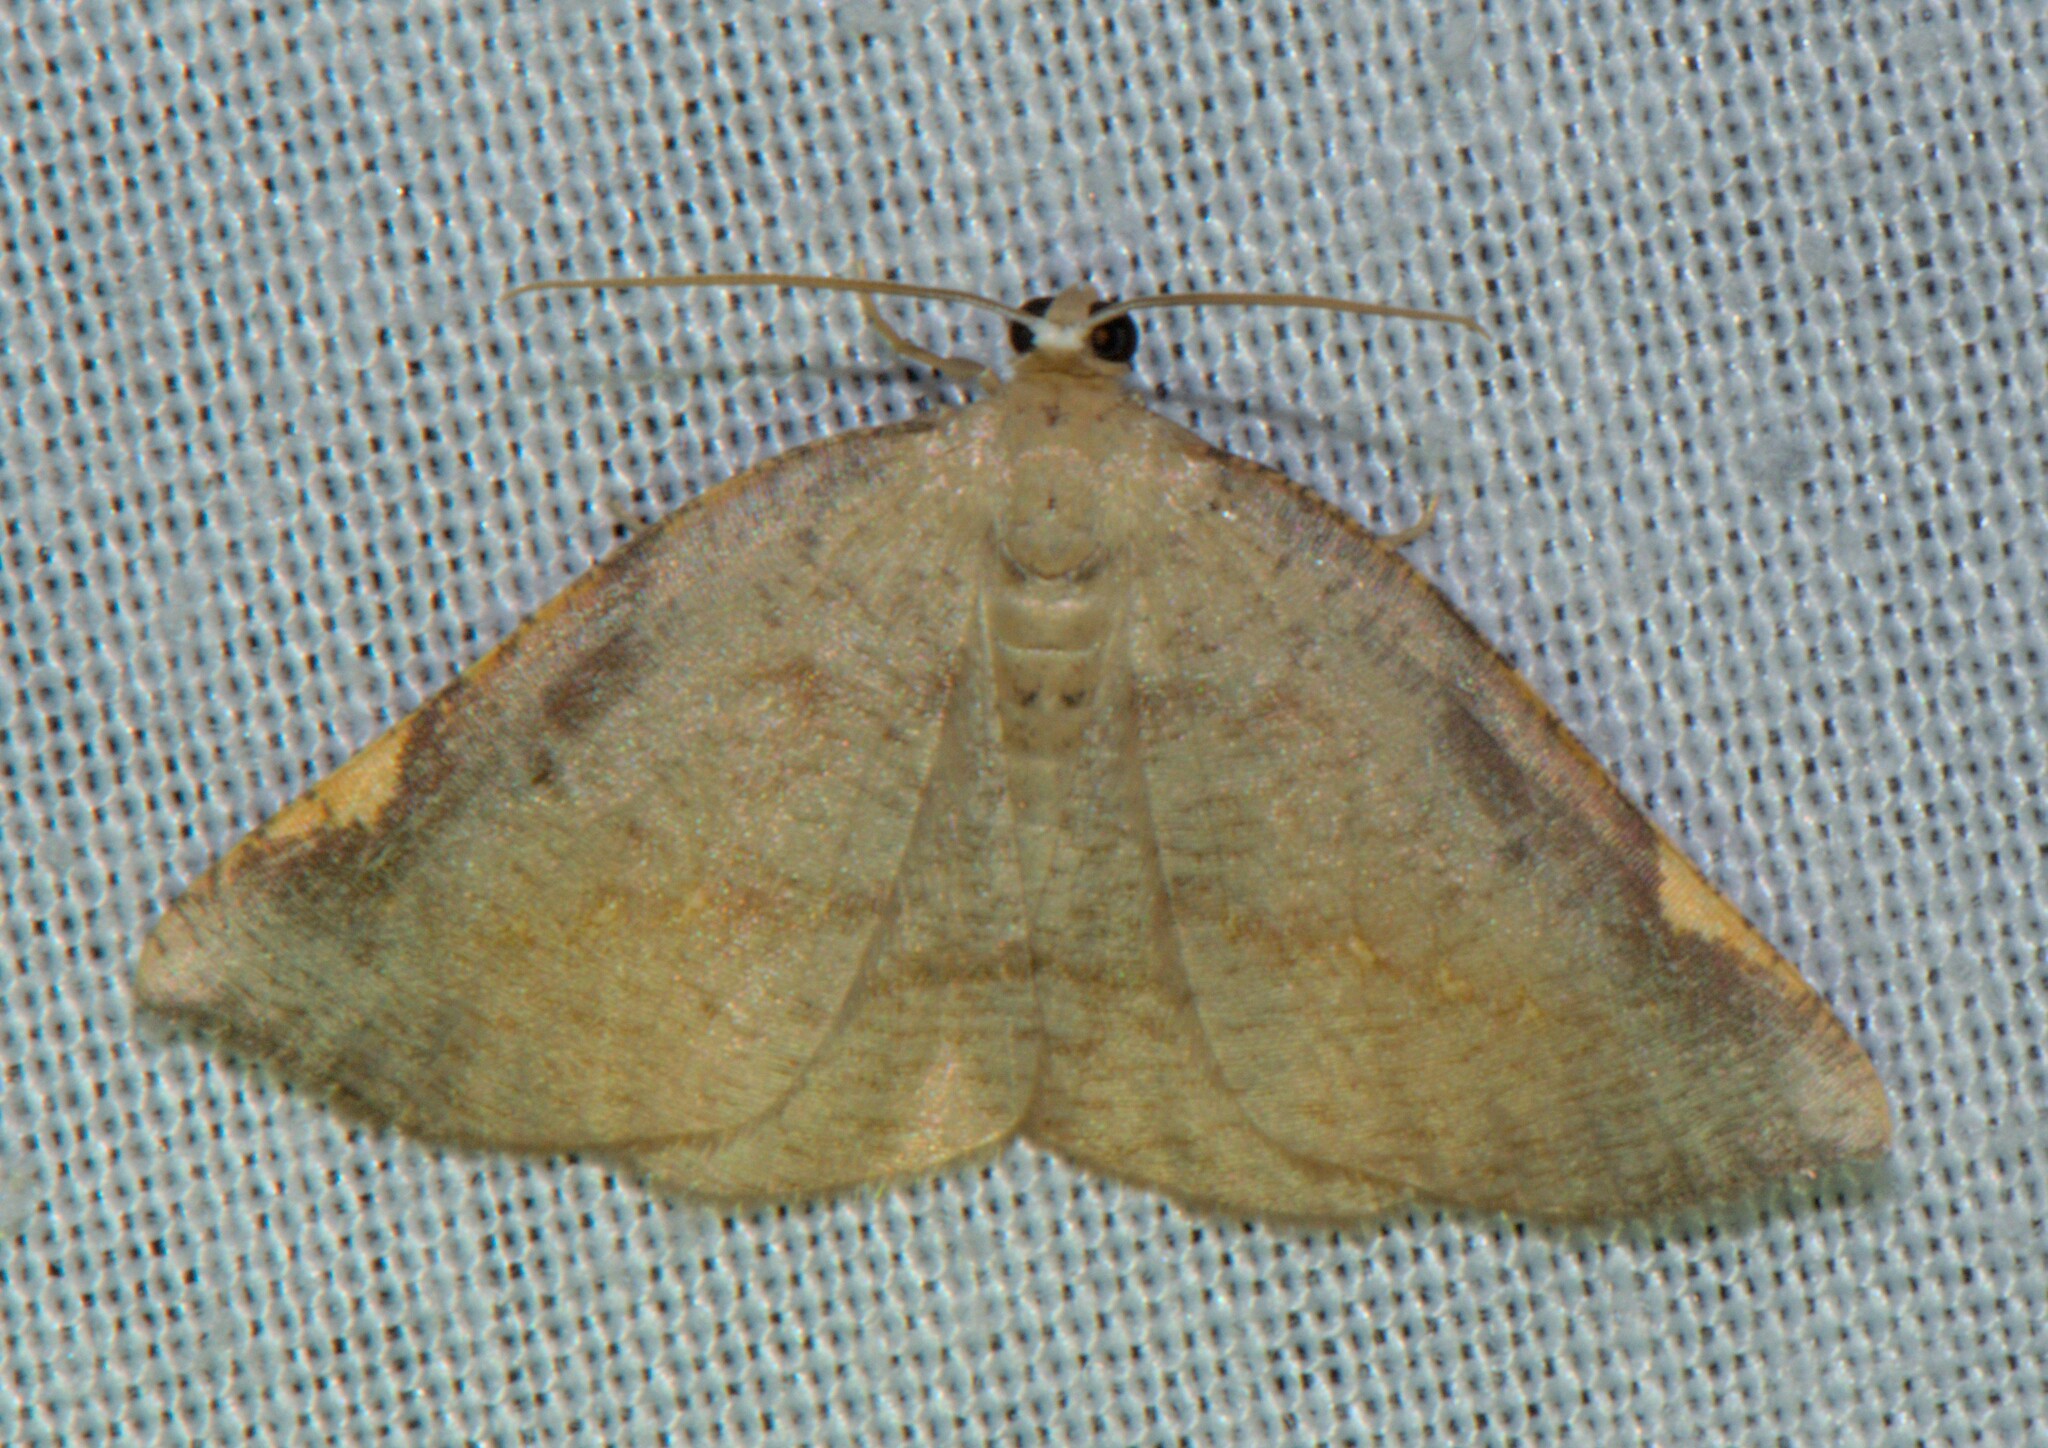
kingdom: Animalia
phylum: Arthropoda
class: Insecta
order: Lepidoptera
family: Geometridae
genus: Nothomiza
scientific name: Nothomiza costinotata
